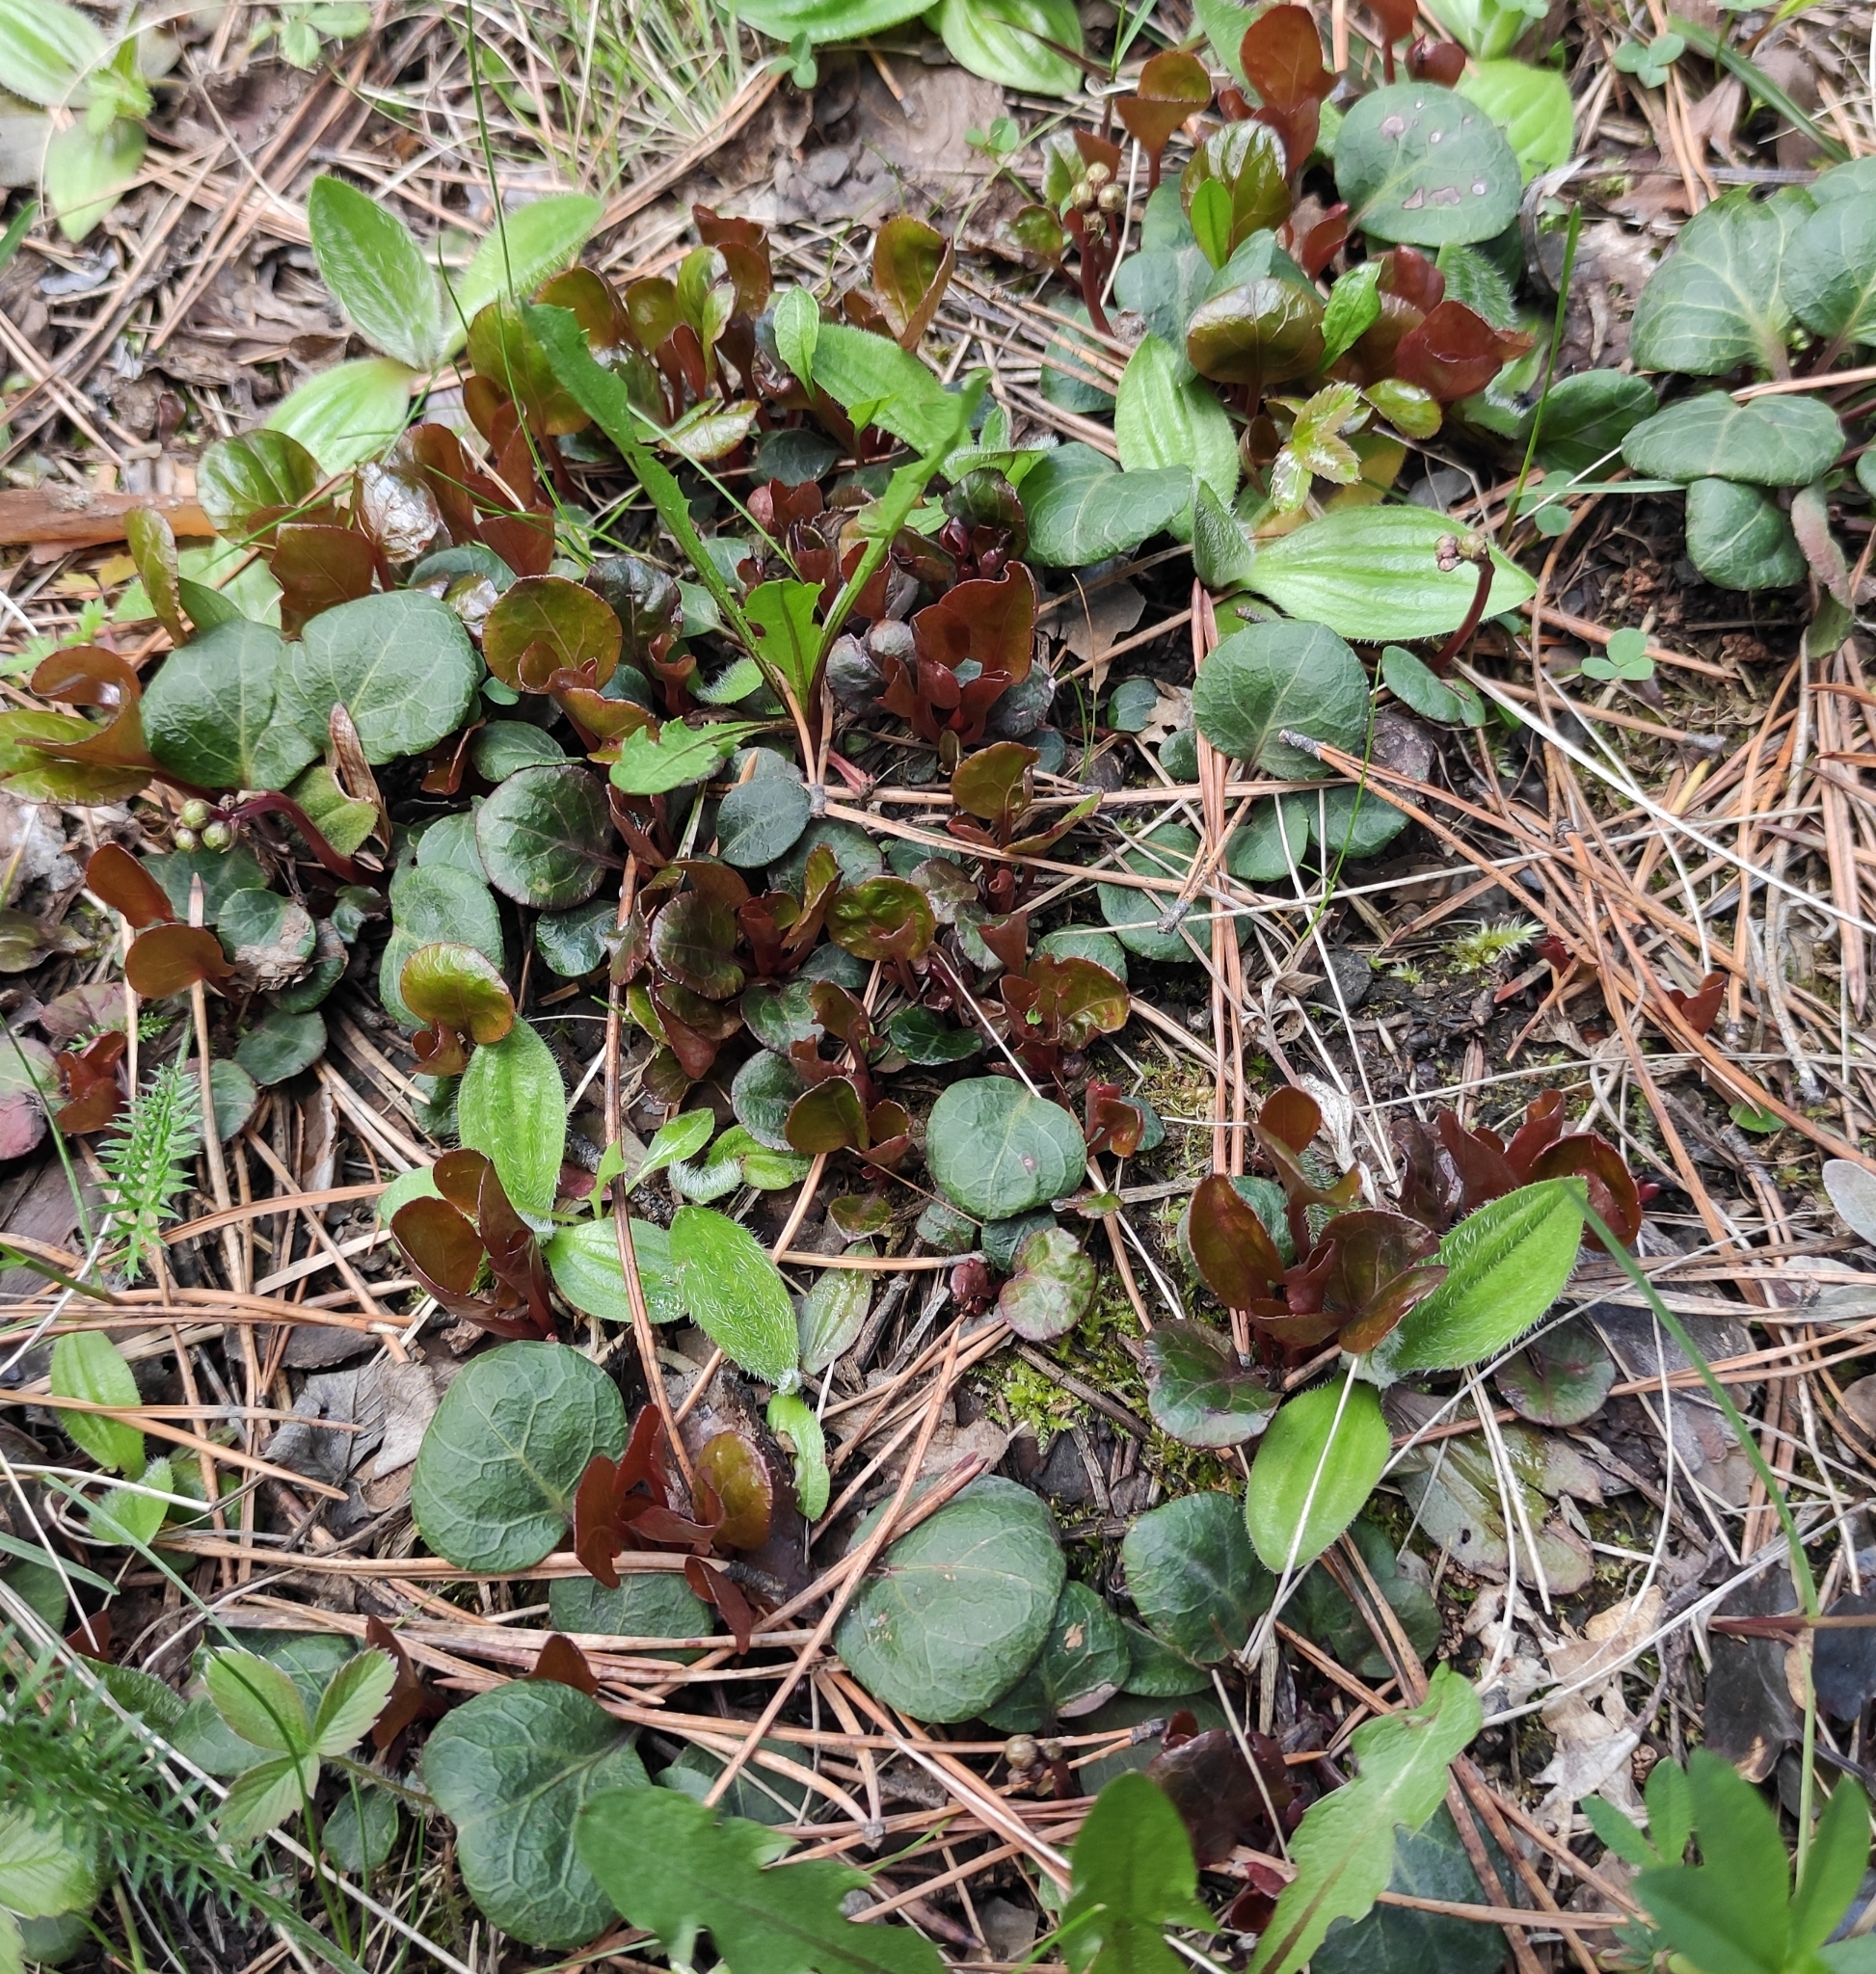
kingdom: Plantae
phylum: Tracheophyta
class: Magnoliopsida
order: Ericales
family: Ericaceae
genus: Pyrola
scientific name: Pyrola chlorantha
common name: Green wintergreen
